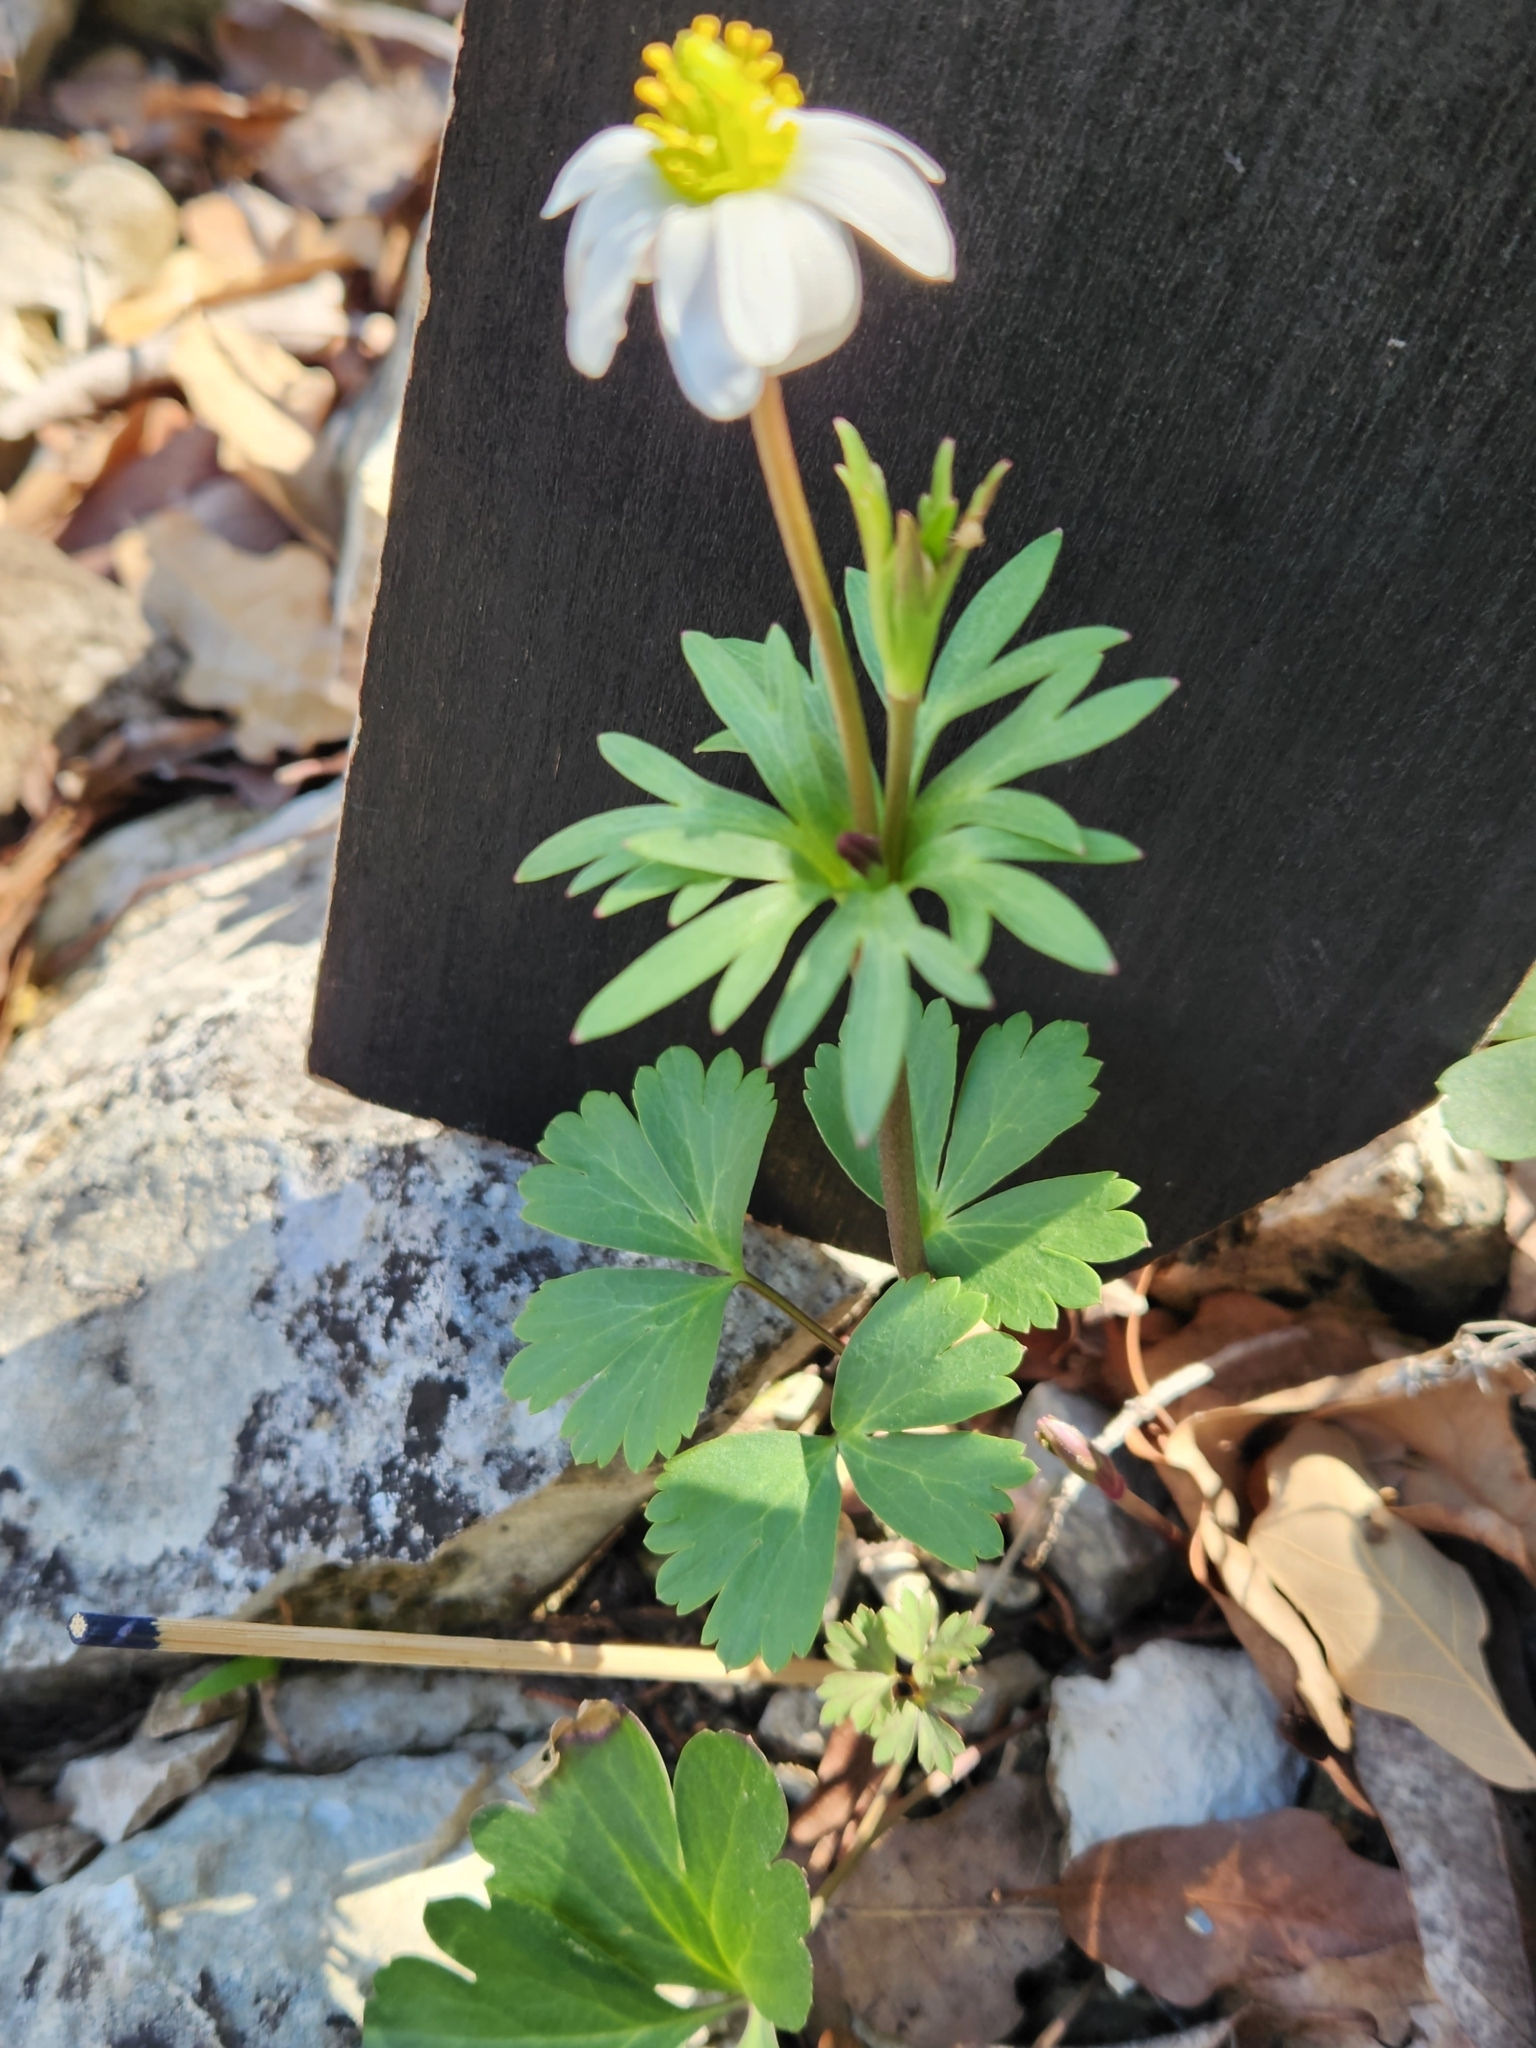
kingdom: Plantae
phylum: Tracheophyta
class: Magnoliopsida
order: Ranunculales
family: Ranunculaceae
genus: Anemone
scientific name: Anemone edwardsiana
